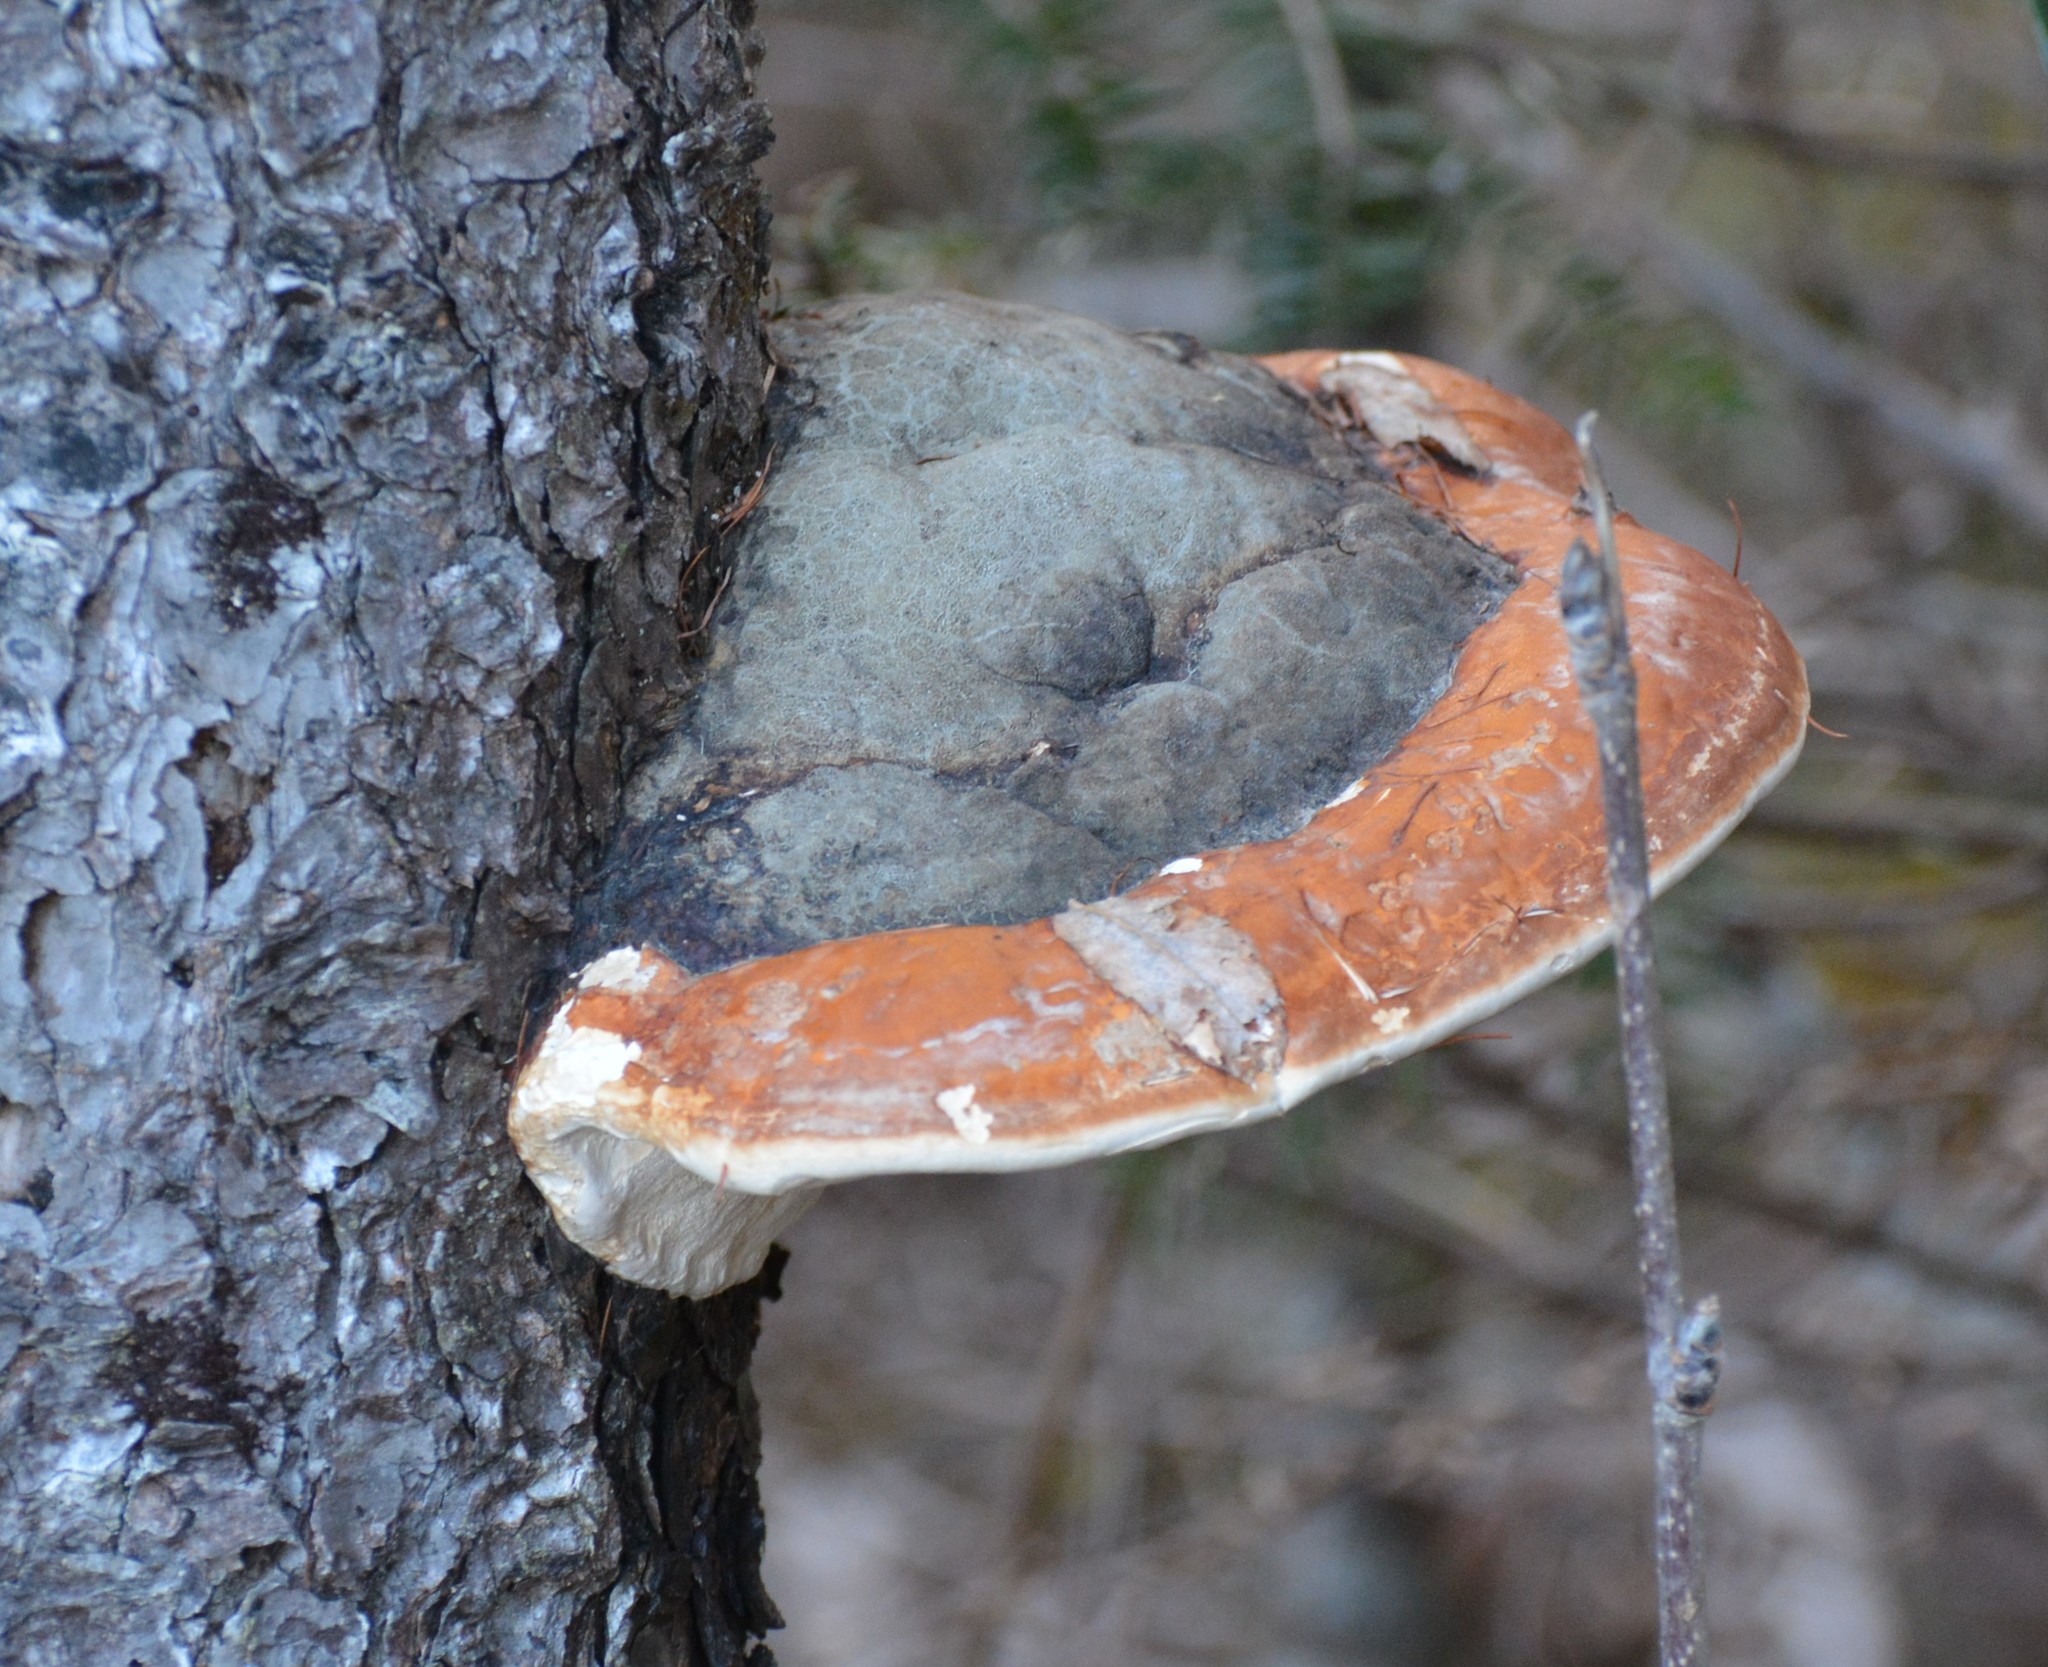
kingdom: Fungi
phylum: Basidiomycota
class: Agaricomycetes
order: Polyporales
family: Fomitopsidaceae
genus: Fomitopsis
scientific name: Fomitopsis mounceae
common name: Northern red belt
